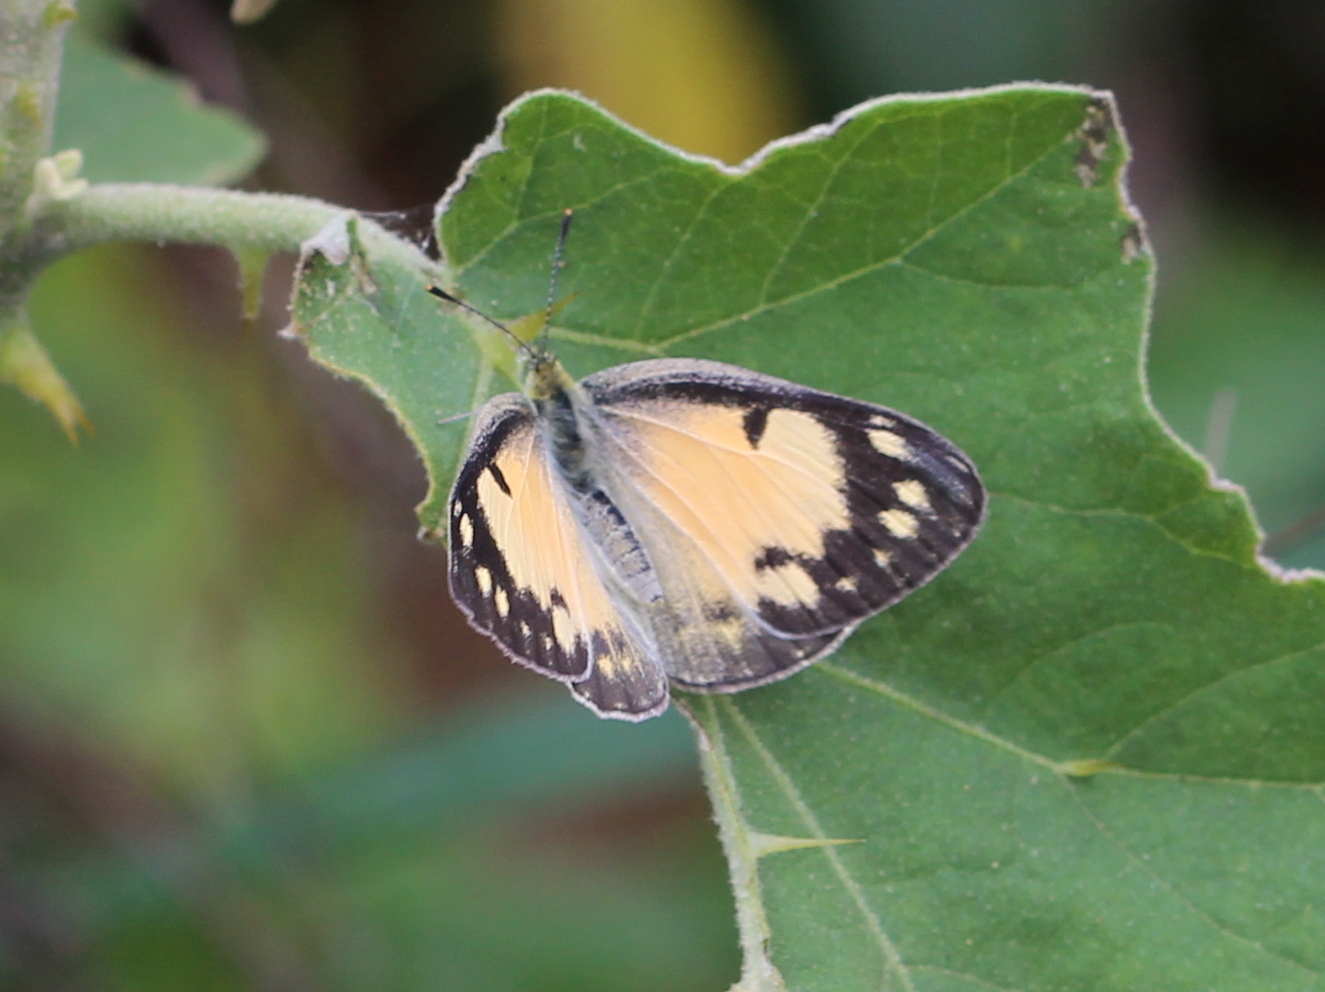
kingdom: Animalia
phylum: Arthropoda
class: Insecta
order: Lepidoptera
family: Pieridae
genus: Colotis
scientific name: Colotis amata
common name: Small salmon arab
